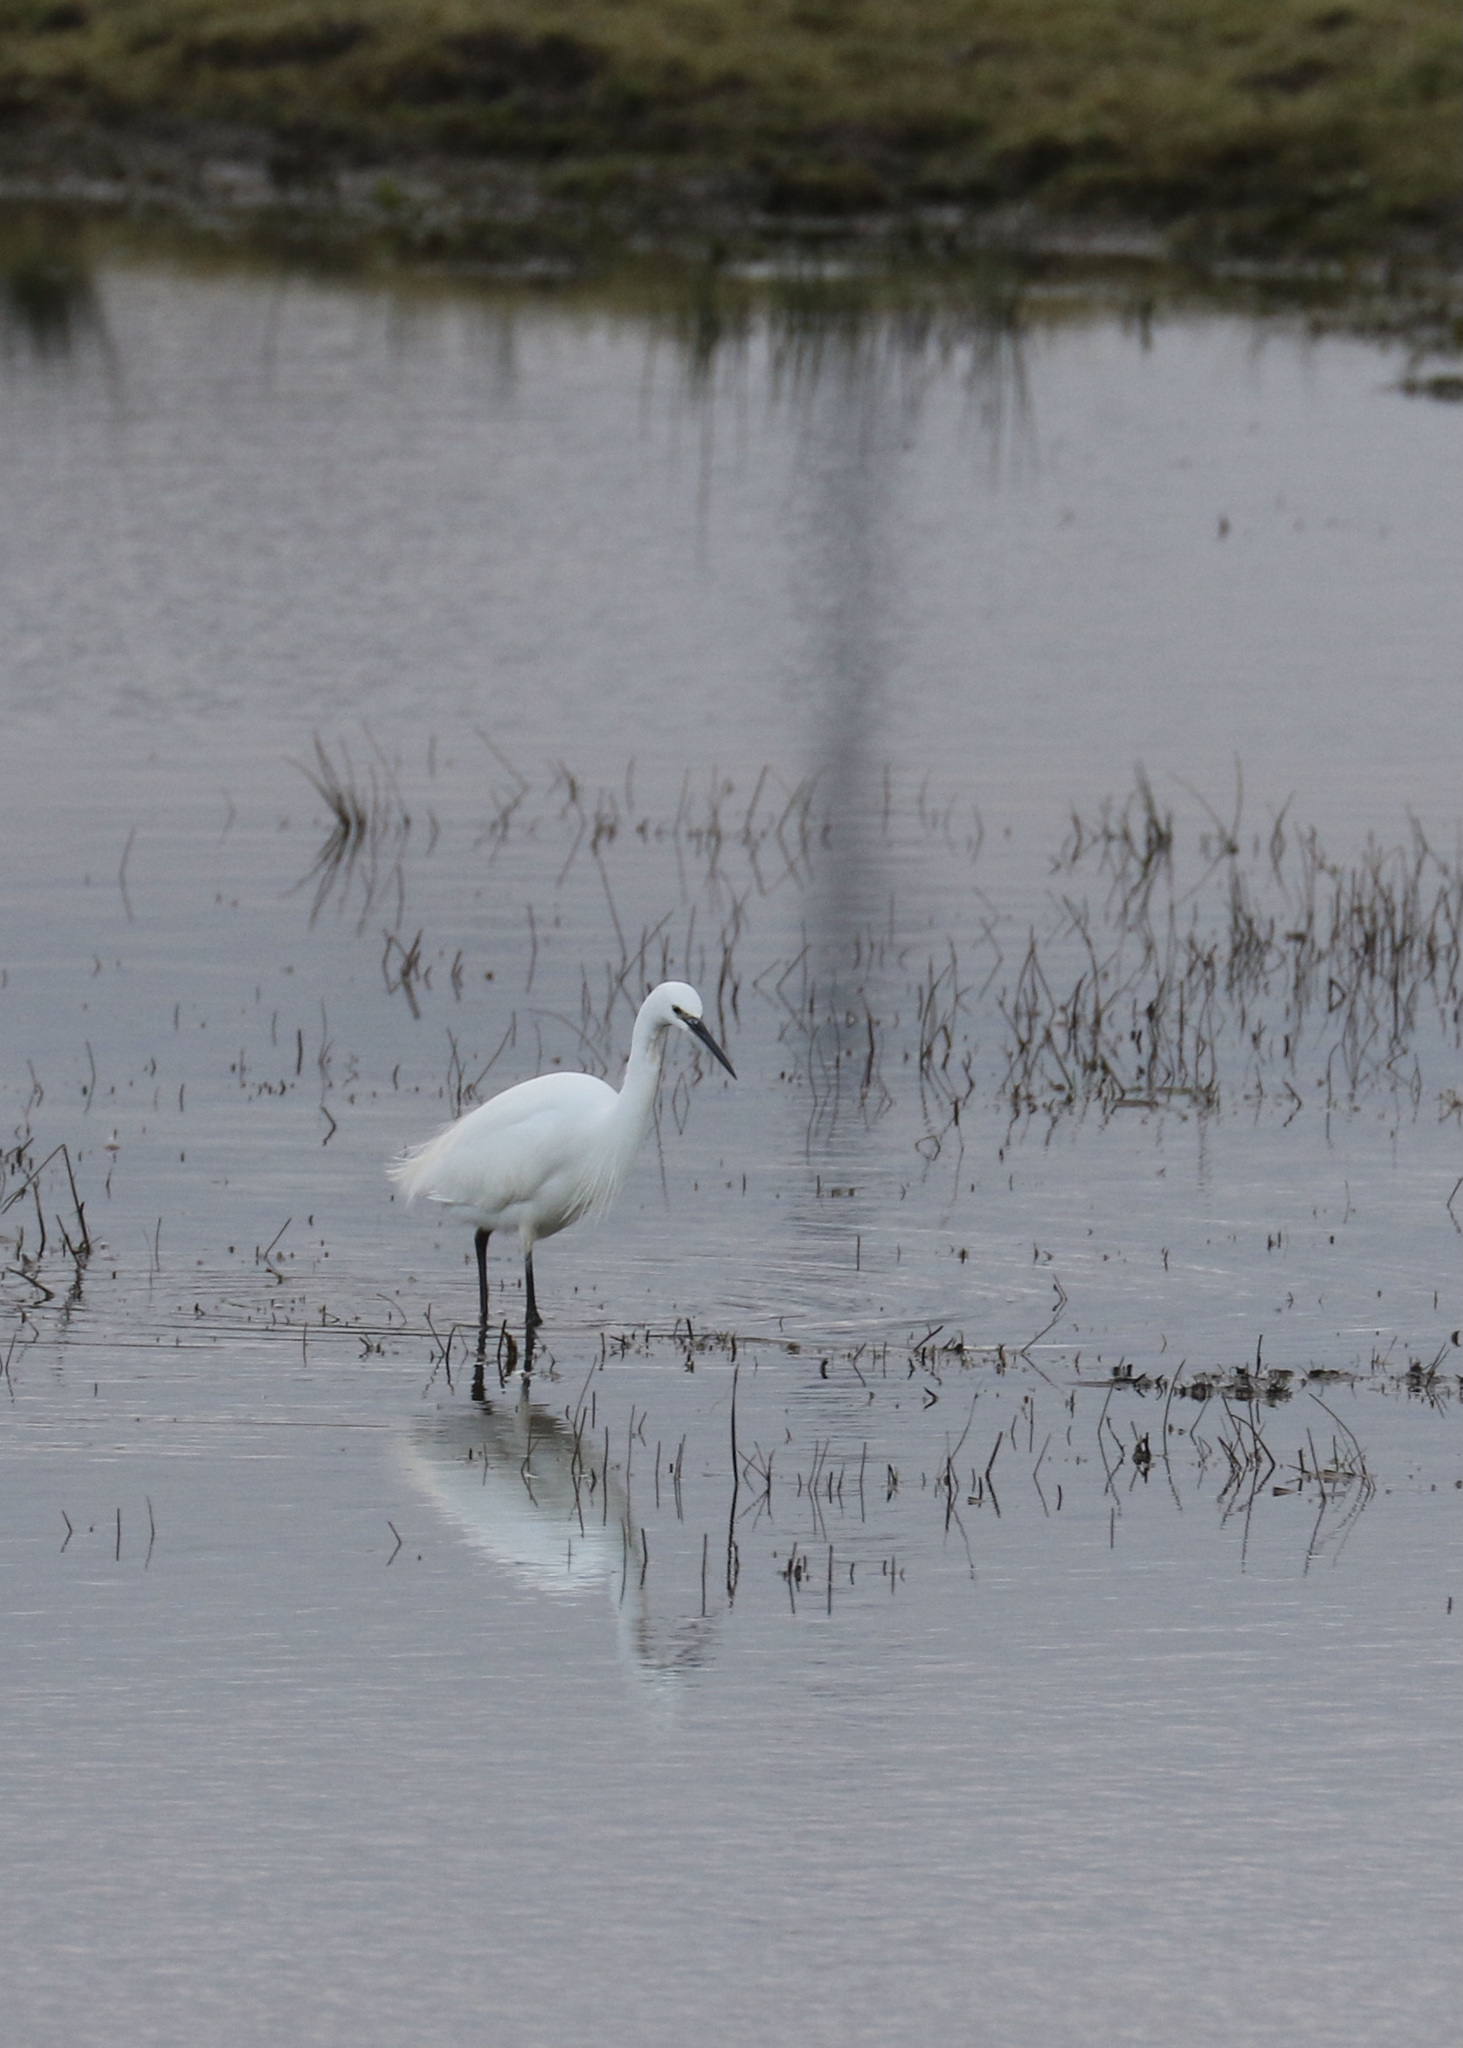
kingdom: Animalia
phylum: Chordata
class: Aves
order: Pelecaniformes
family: Ardeidae
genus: Egretta
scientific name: Egretta garzetta
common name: Little egret
